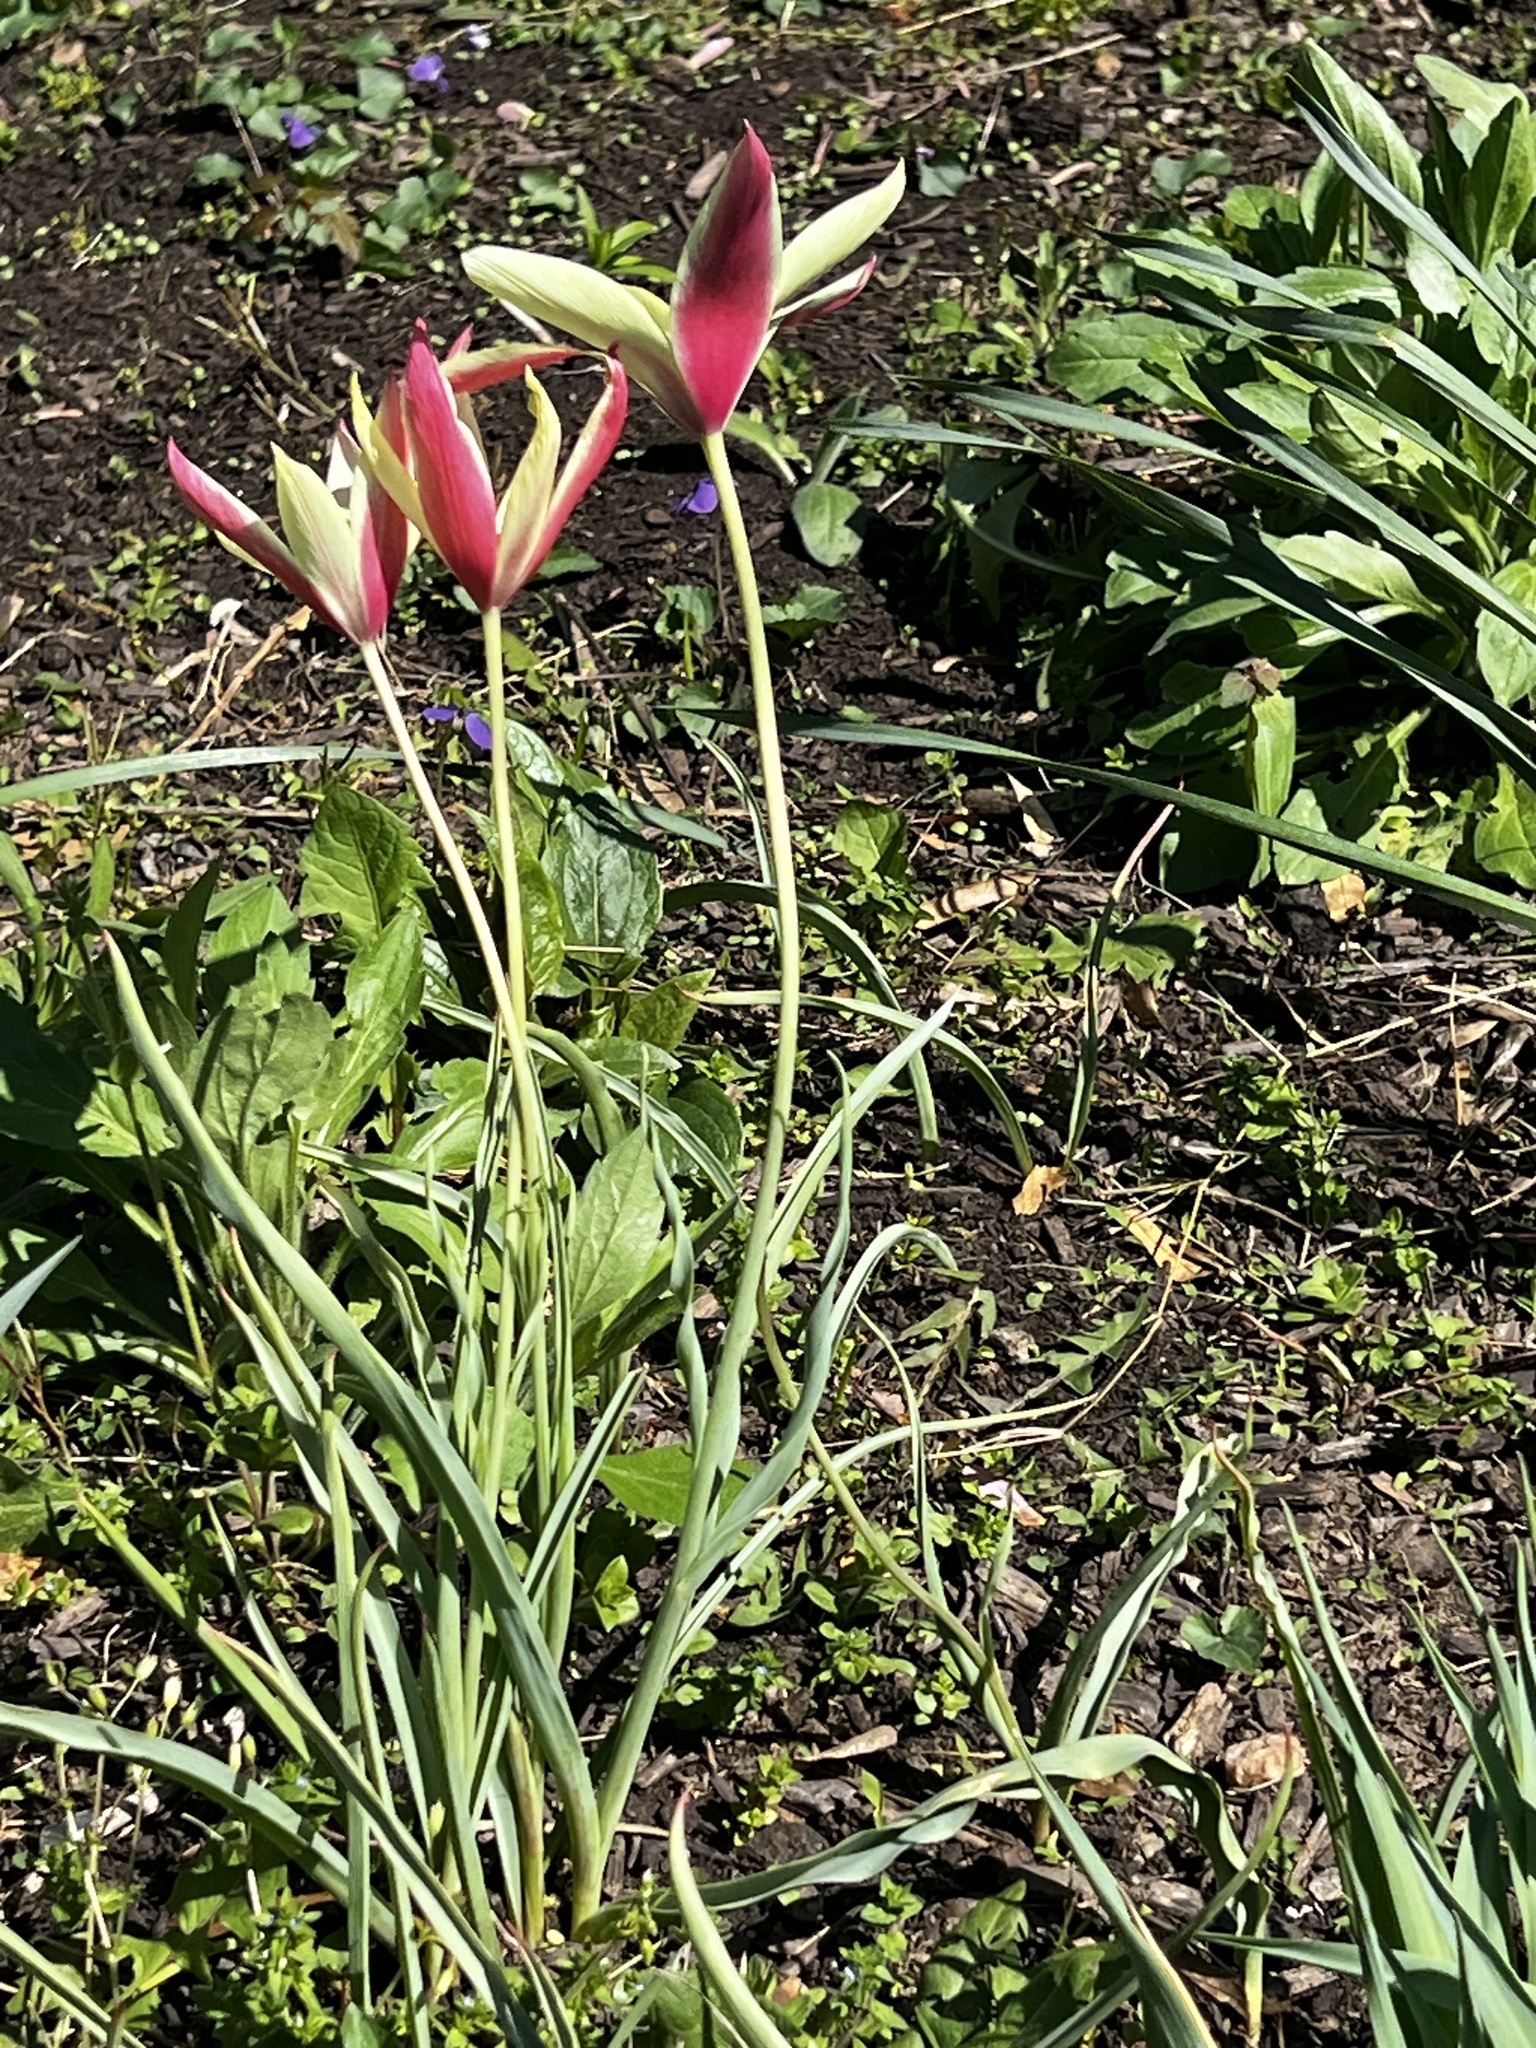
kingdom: Plantae
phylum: Tracheophyta
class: Liliopsida
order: Liliales
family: Liliaceae
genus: Tulipa
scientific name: Tulipa clusiana
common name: Lady tulip
